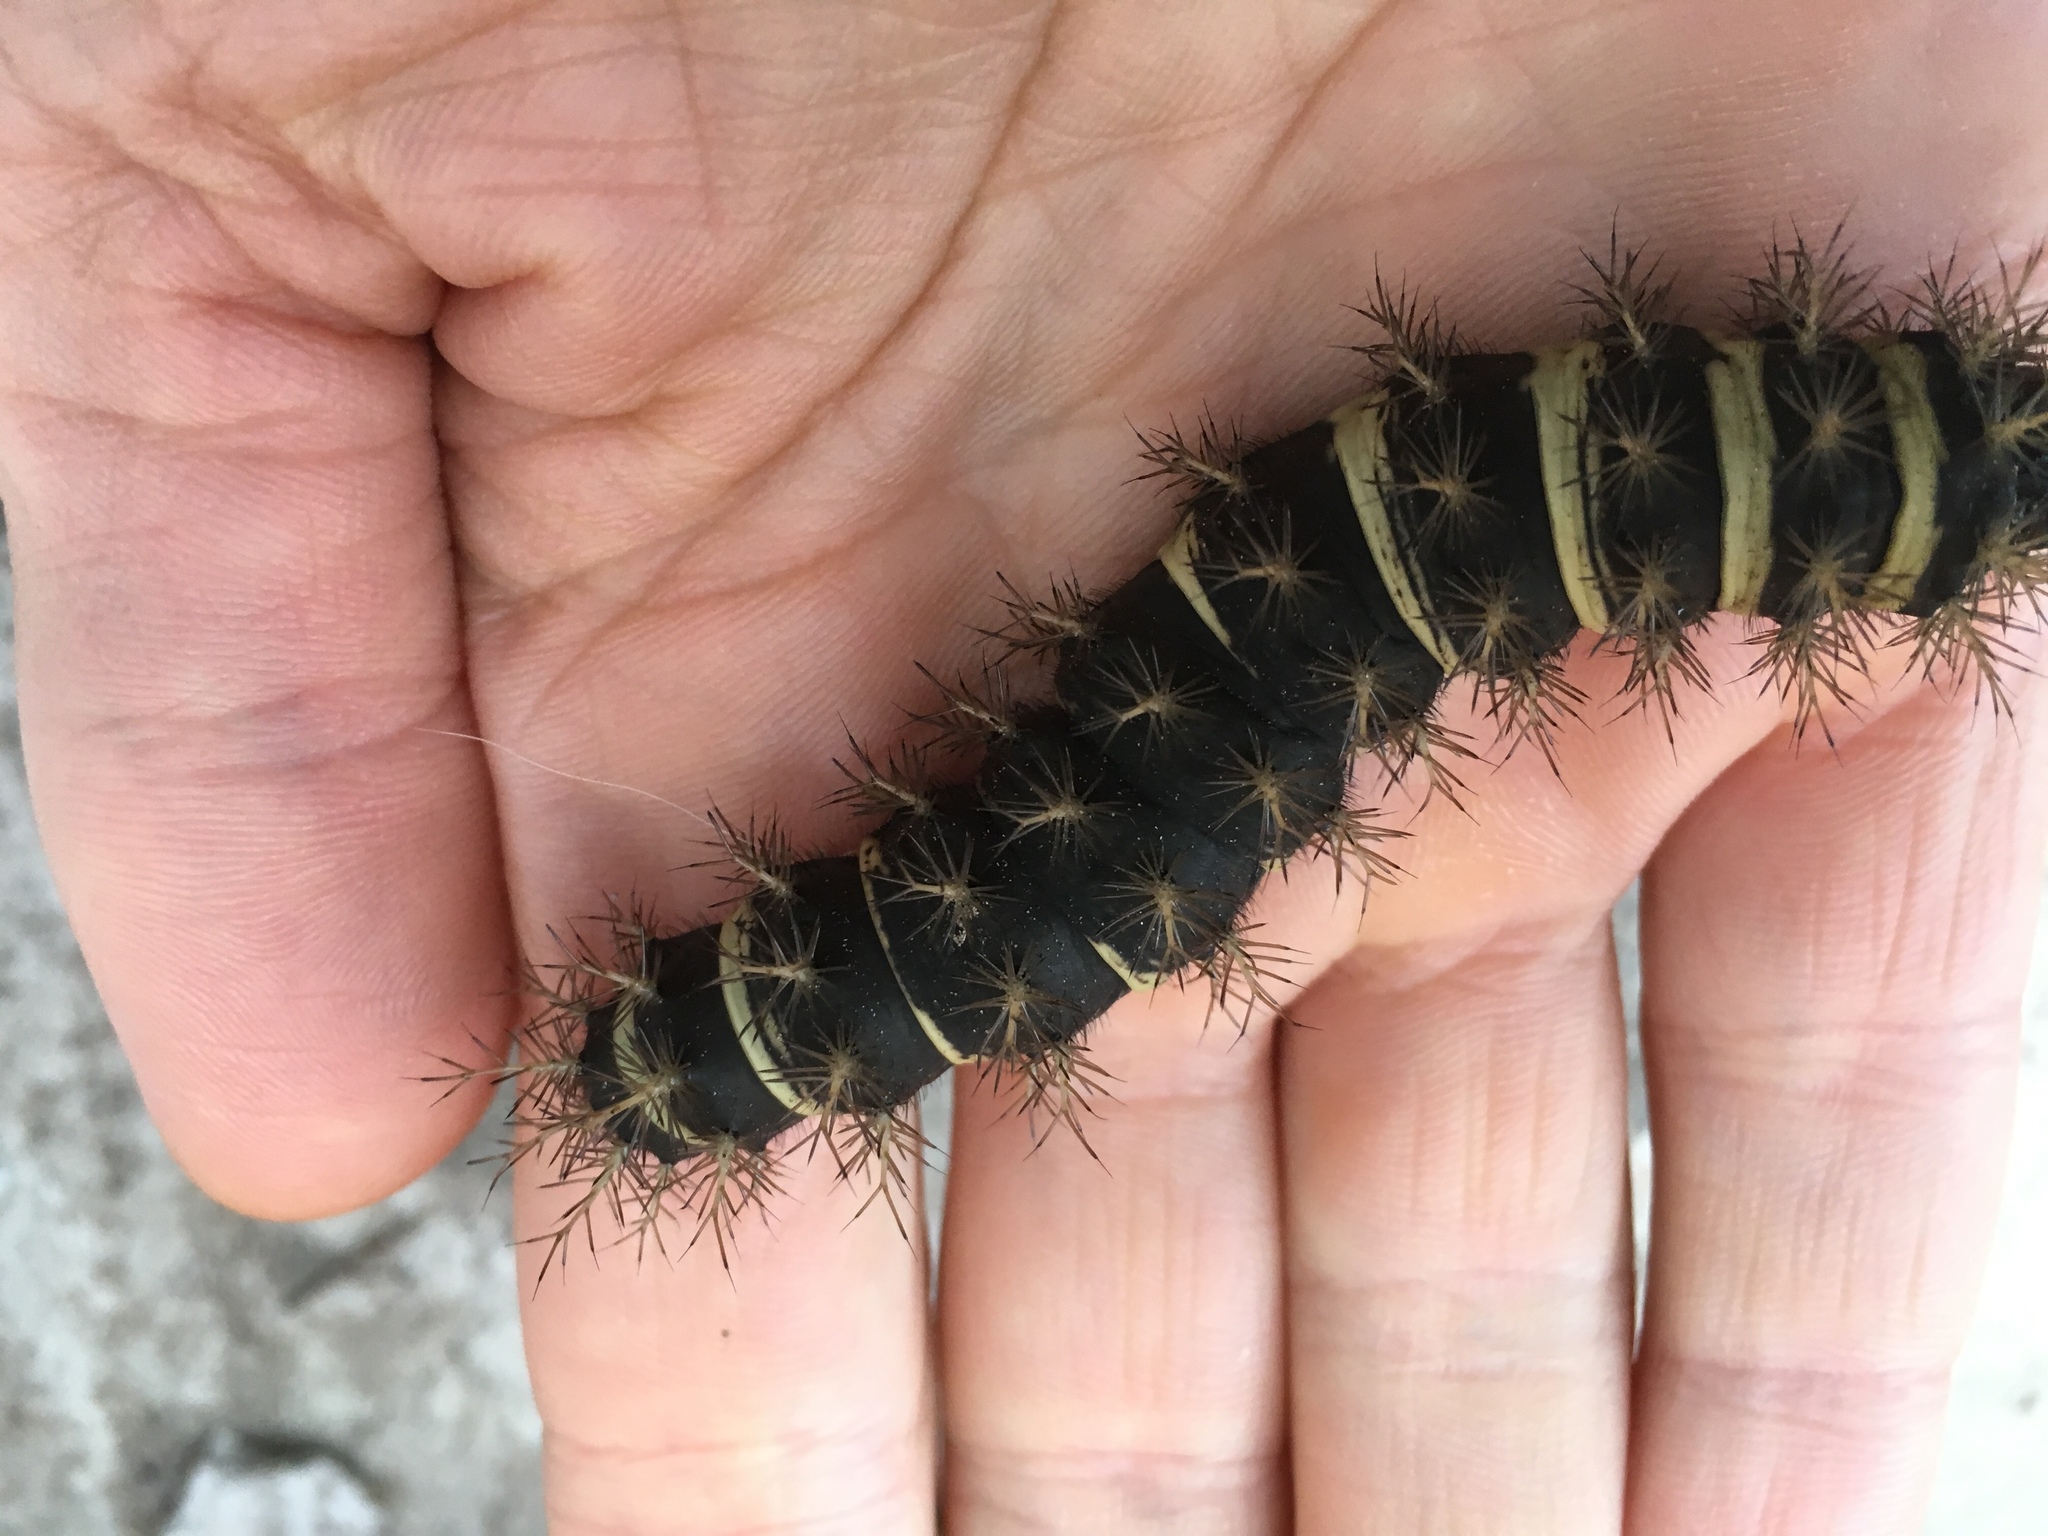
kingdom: Animalia
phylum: Arthropoda
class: Insecta
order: Lepidoptera
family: Saturniidae
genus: Eudyaria
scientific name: Eudyaria zeta
